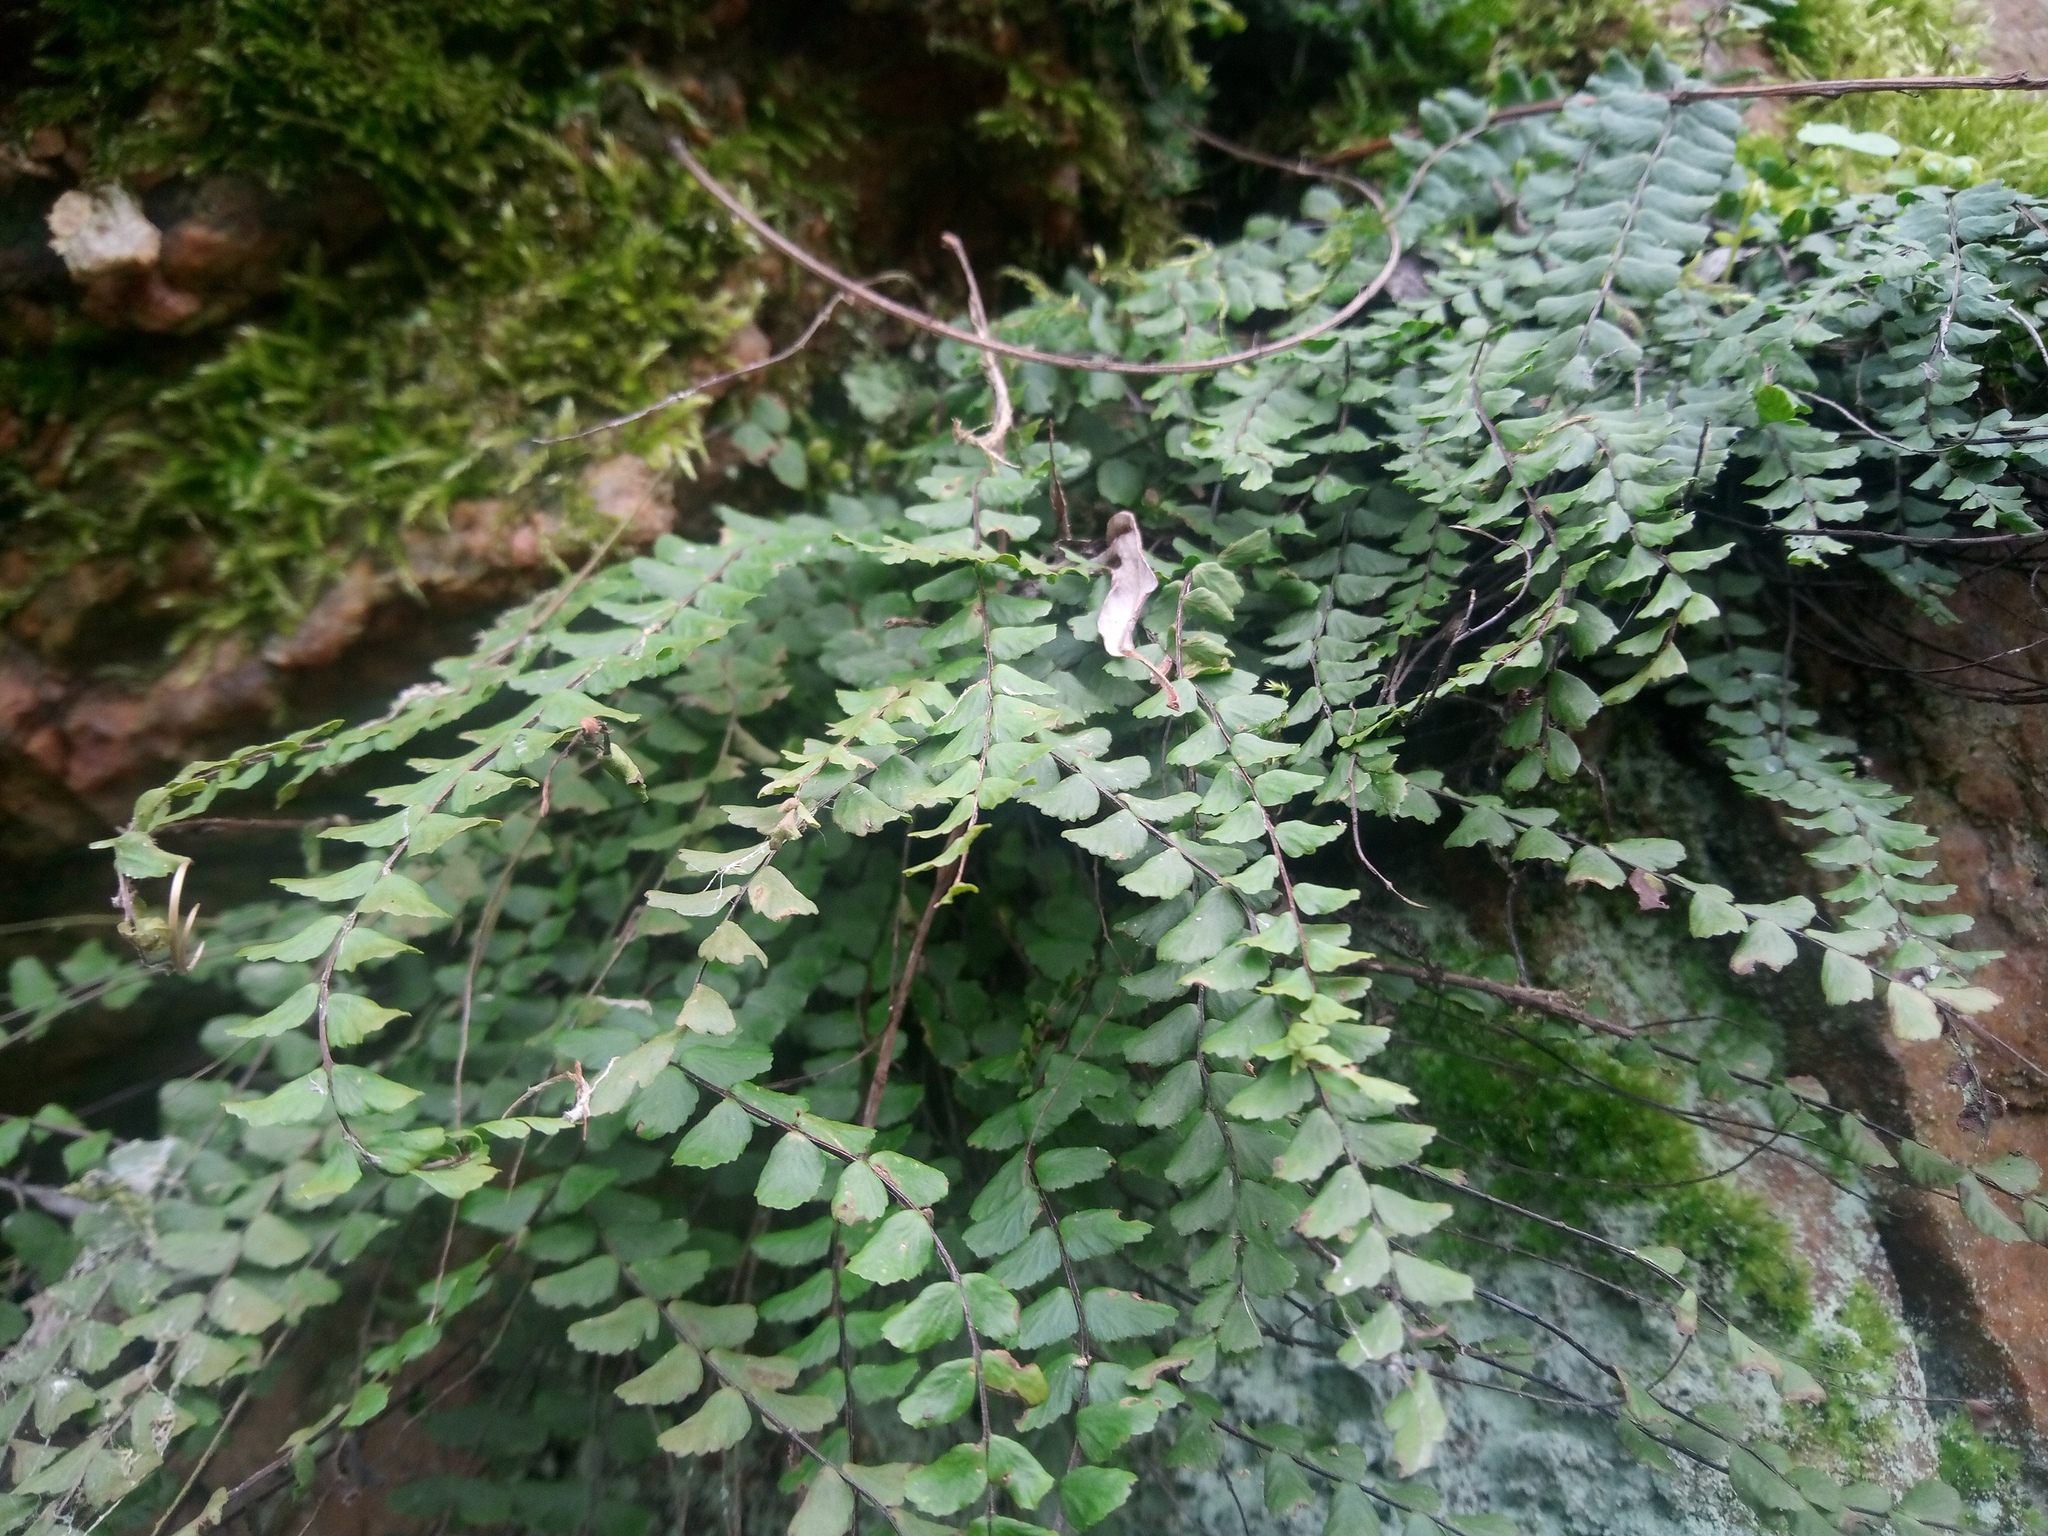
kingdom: Plantae
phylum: Tracheophyta
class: Polypodiopsida
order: Polypodiales
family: Aspleniaceae
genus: Asplenium
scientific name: Asplenium trichomanes
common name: Maidenhair spleenwort
